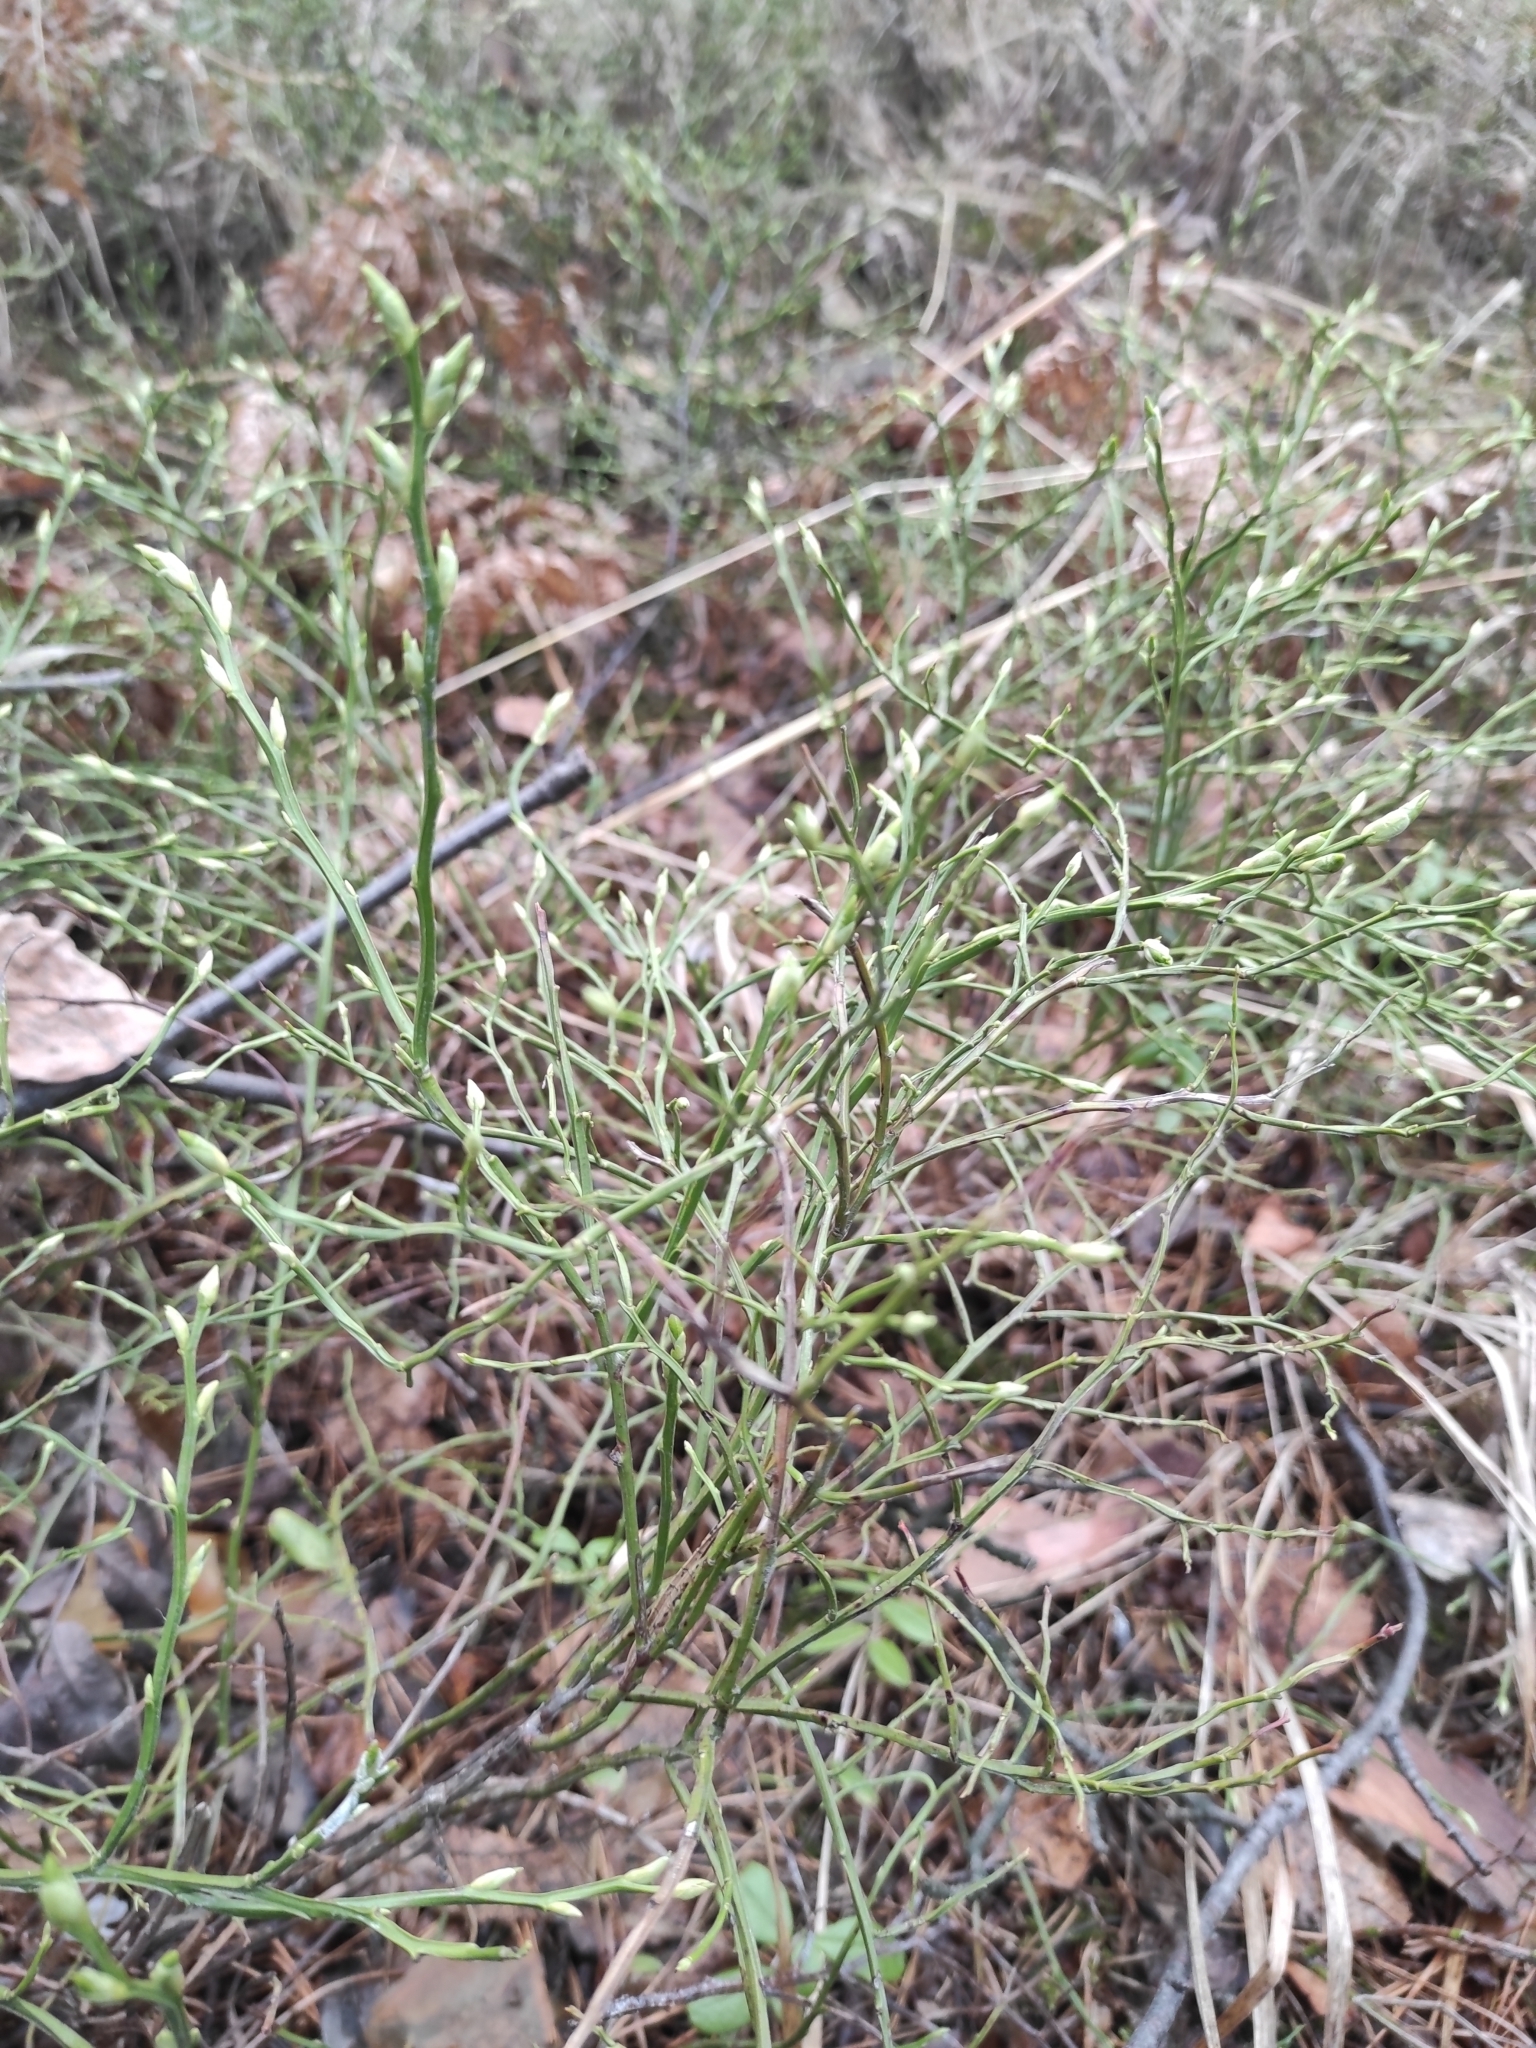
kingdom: Plantae
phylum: Tracheophyta
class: Magnoliopsida
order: Ericales
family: Ericaceae
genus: Vaccinium
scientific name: Vaccinium myrtillus
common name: Bilberry
